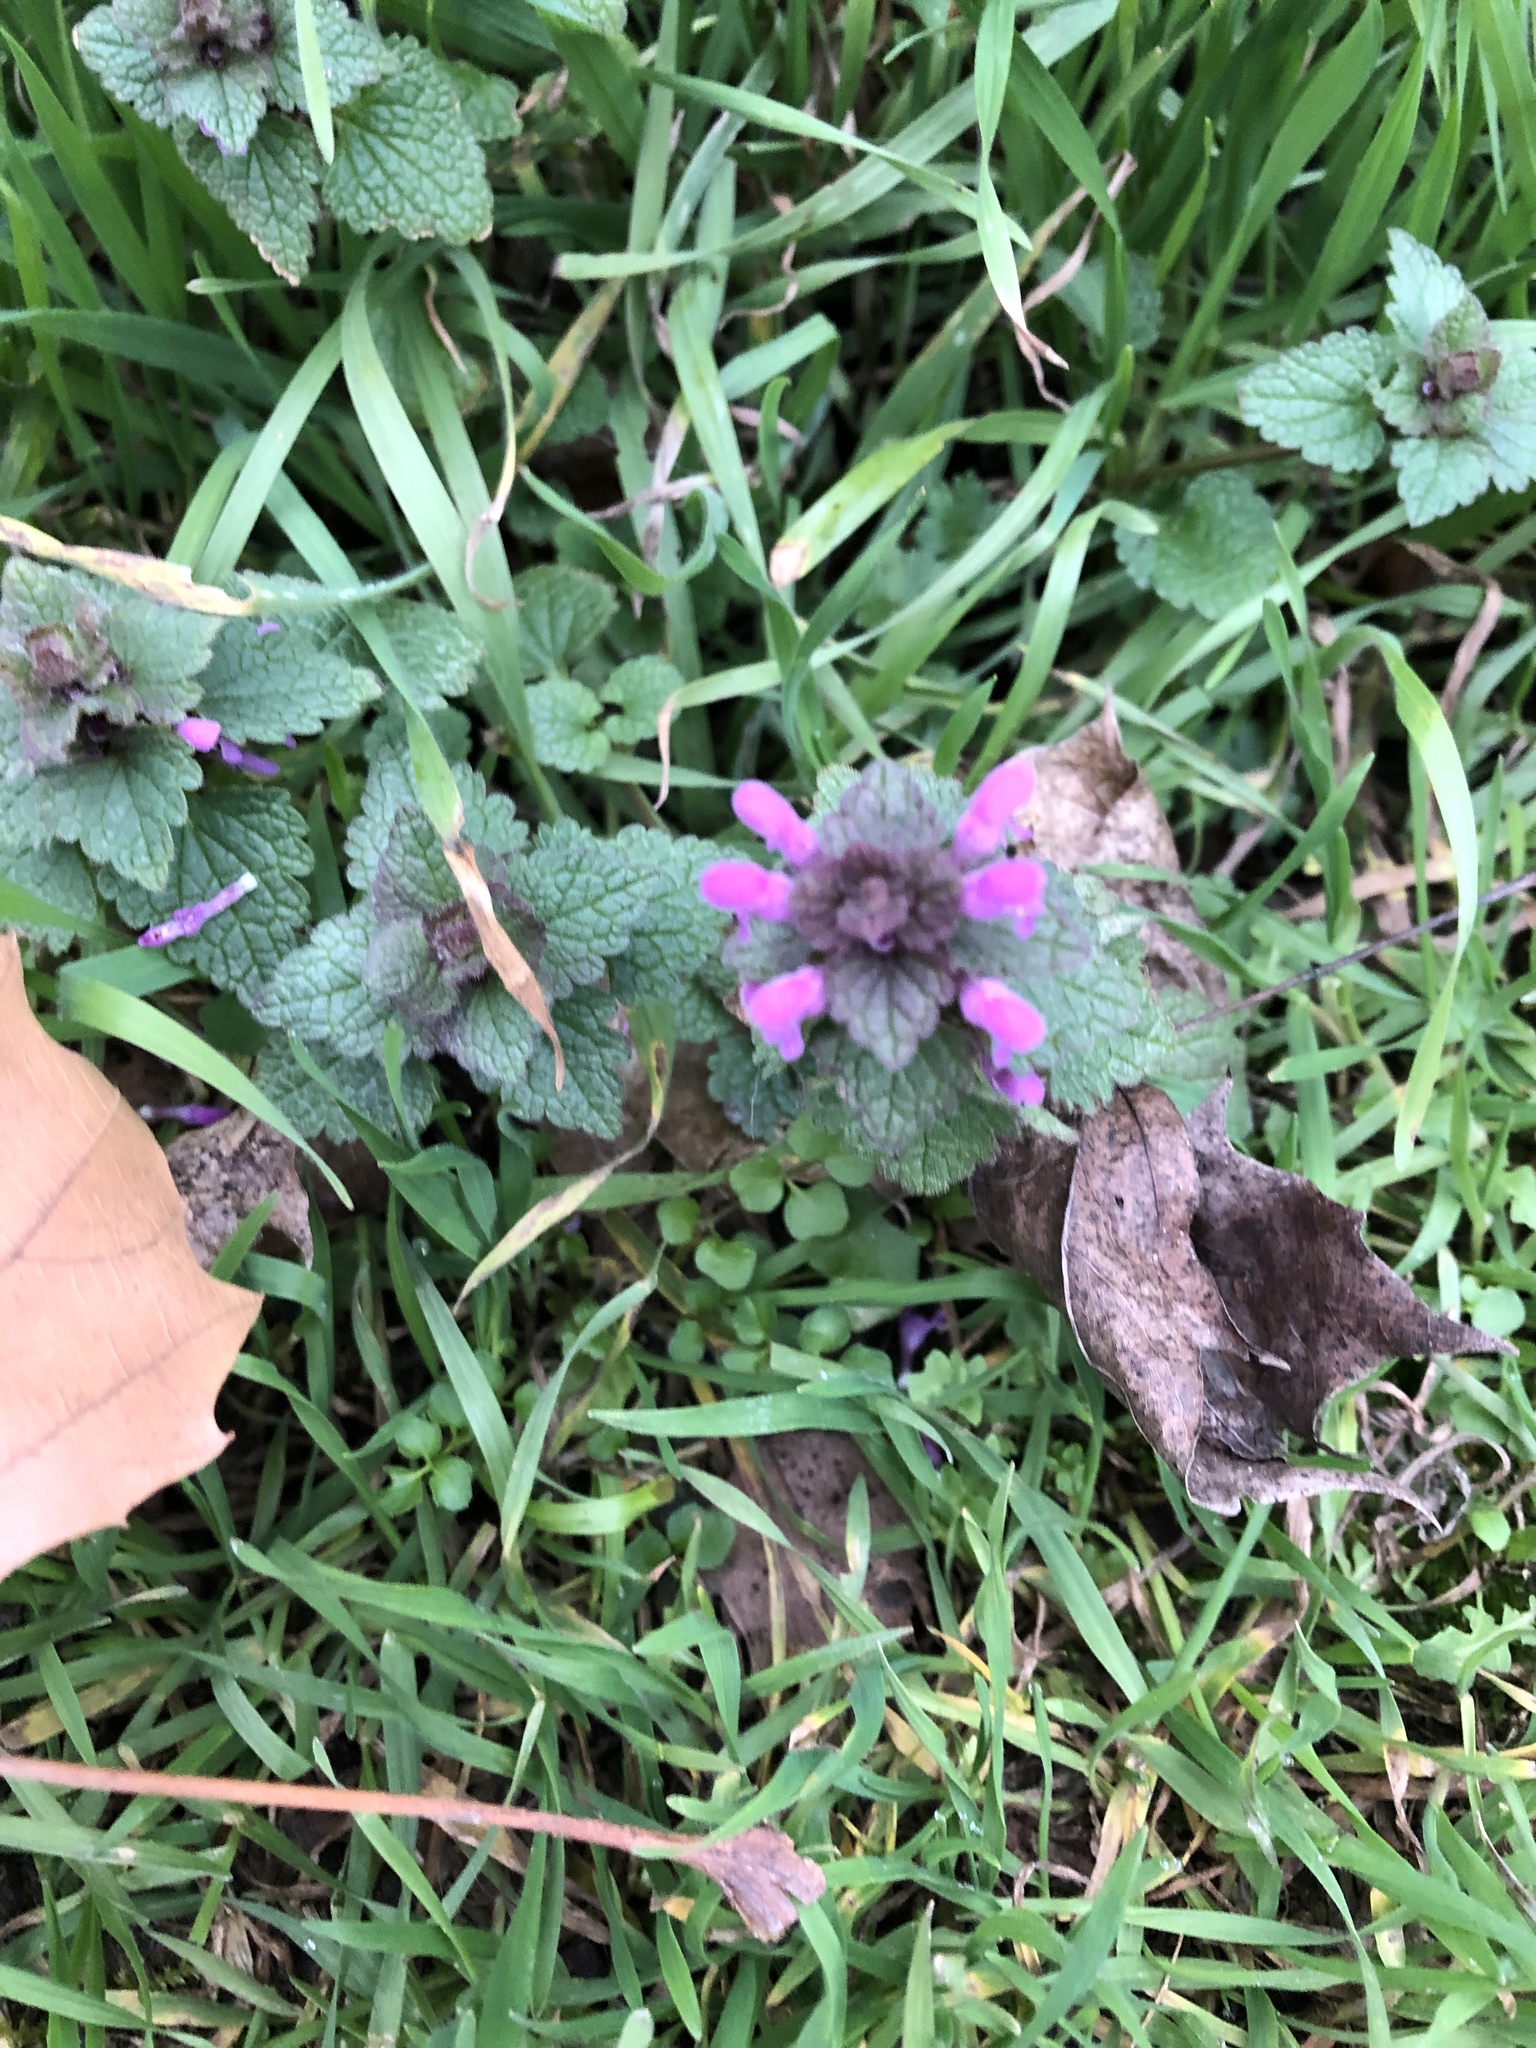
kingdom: Plantae
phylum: Tracheophyta
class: Magnoliopsida
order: Lamiales
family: Lamiaceae
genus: Lamium
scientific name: Lamium purpureum
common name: Red dead-nettle
